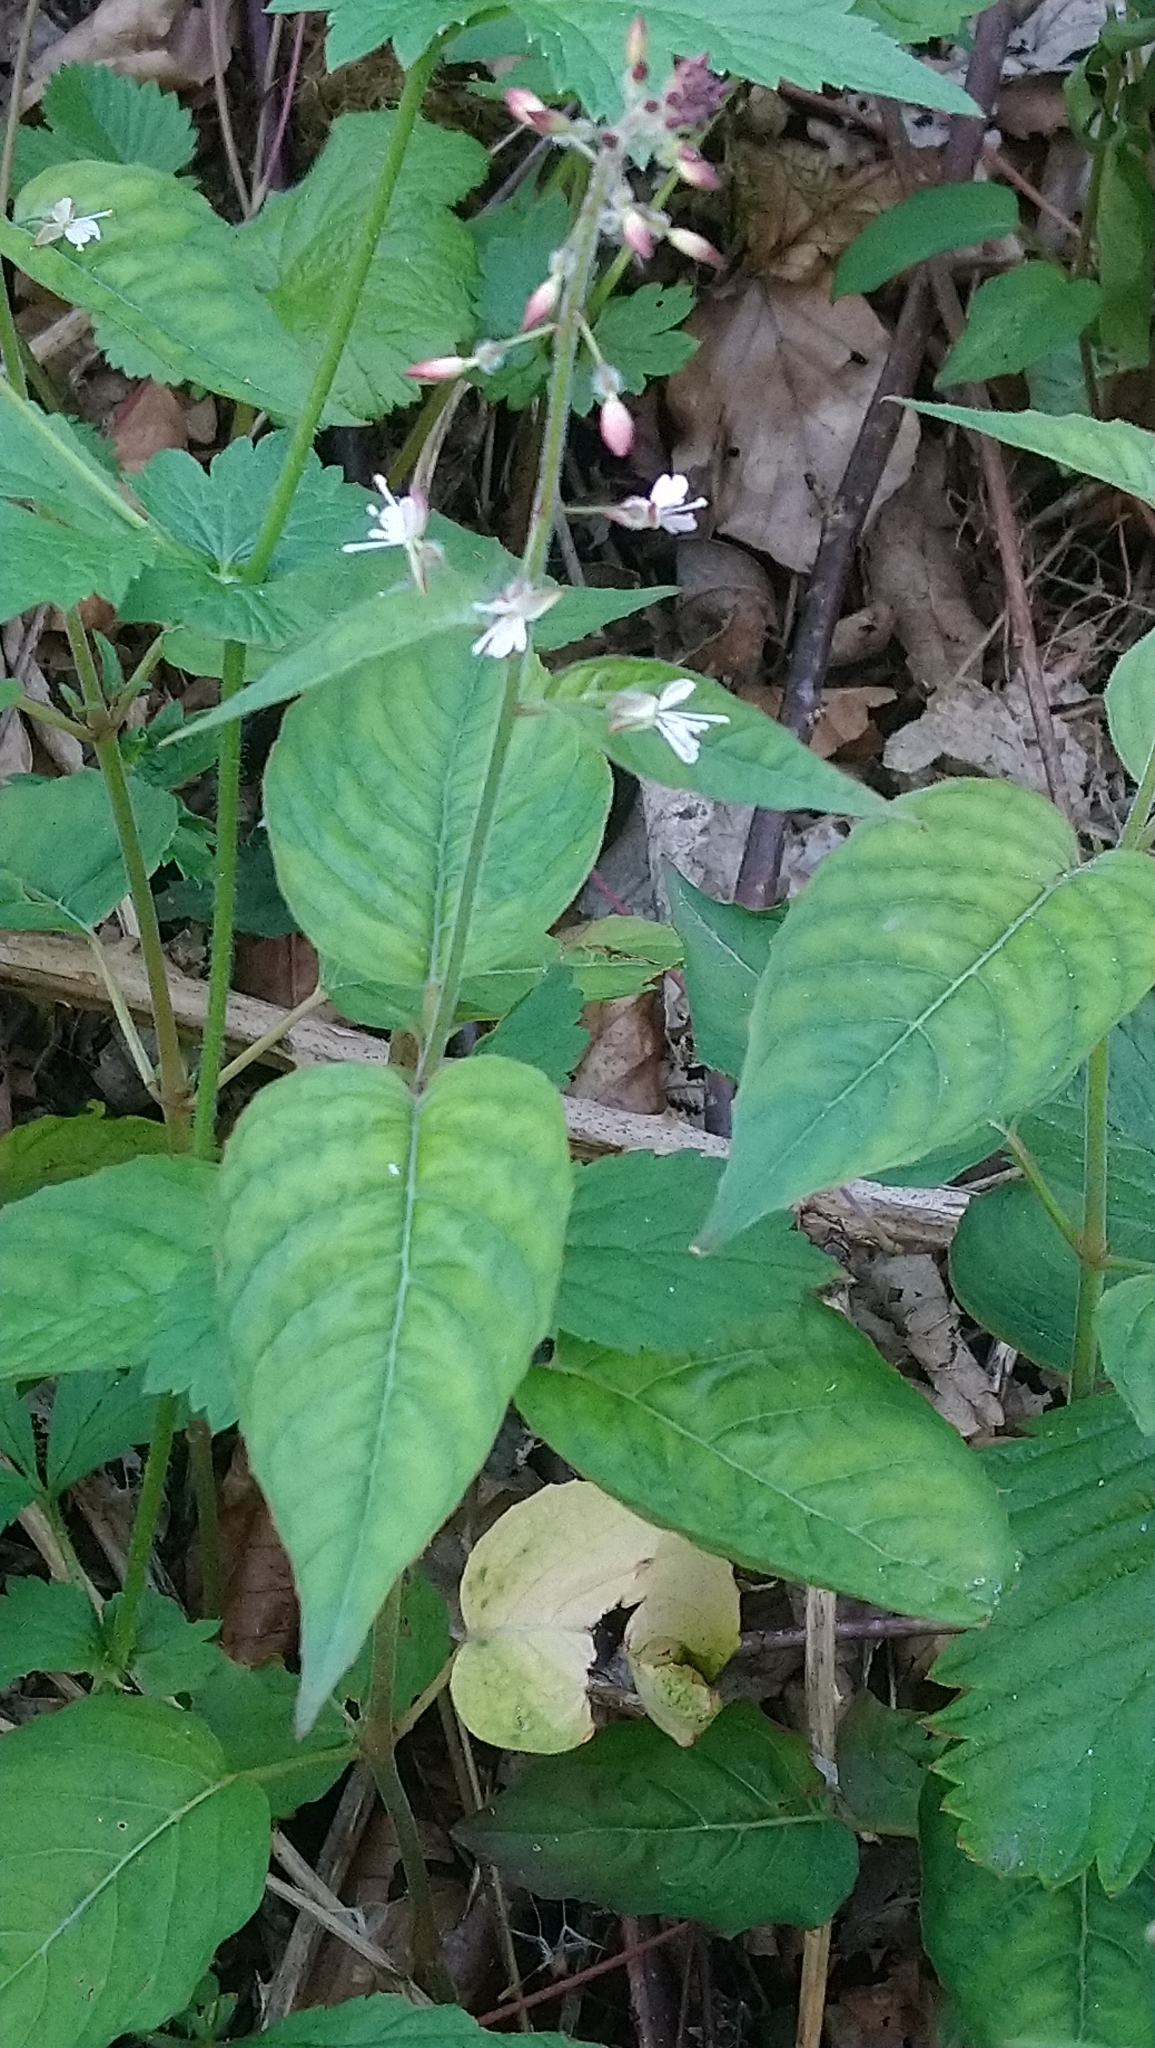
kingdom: Plantae
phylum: Tracheophyta
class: Magnoliopsida
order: Myrtales
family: Onagraceae
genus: Circaea
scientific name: Circaea lutetiana
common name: Enchanter's-nightshade
